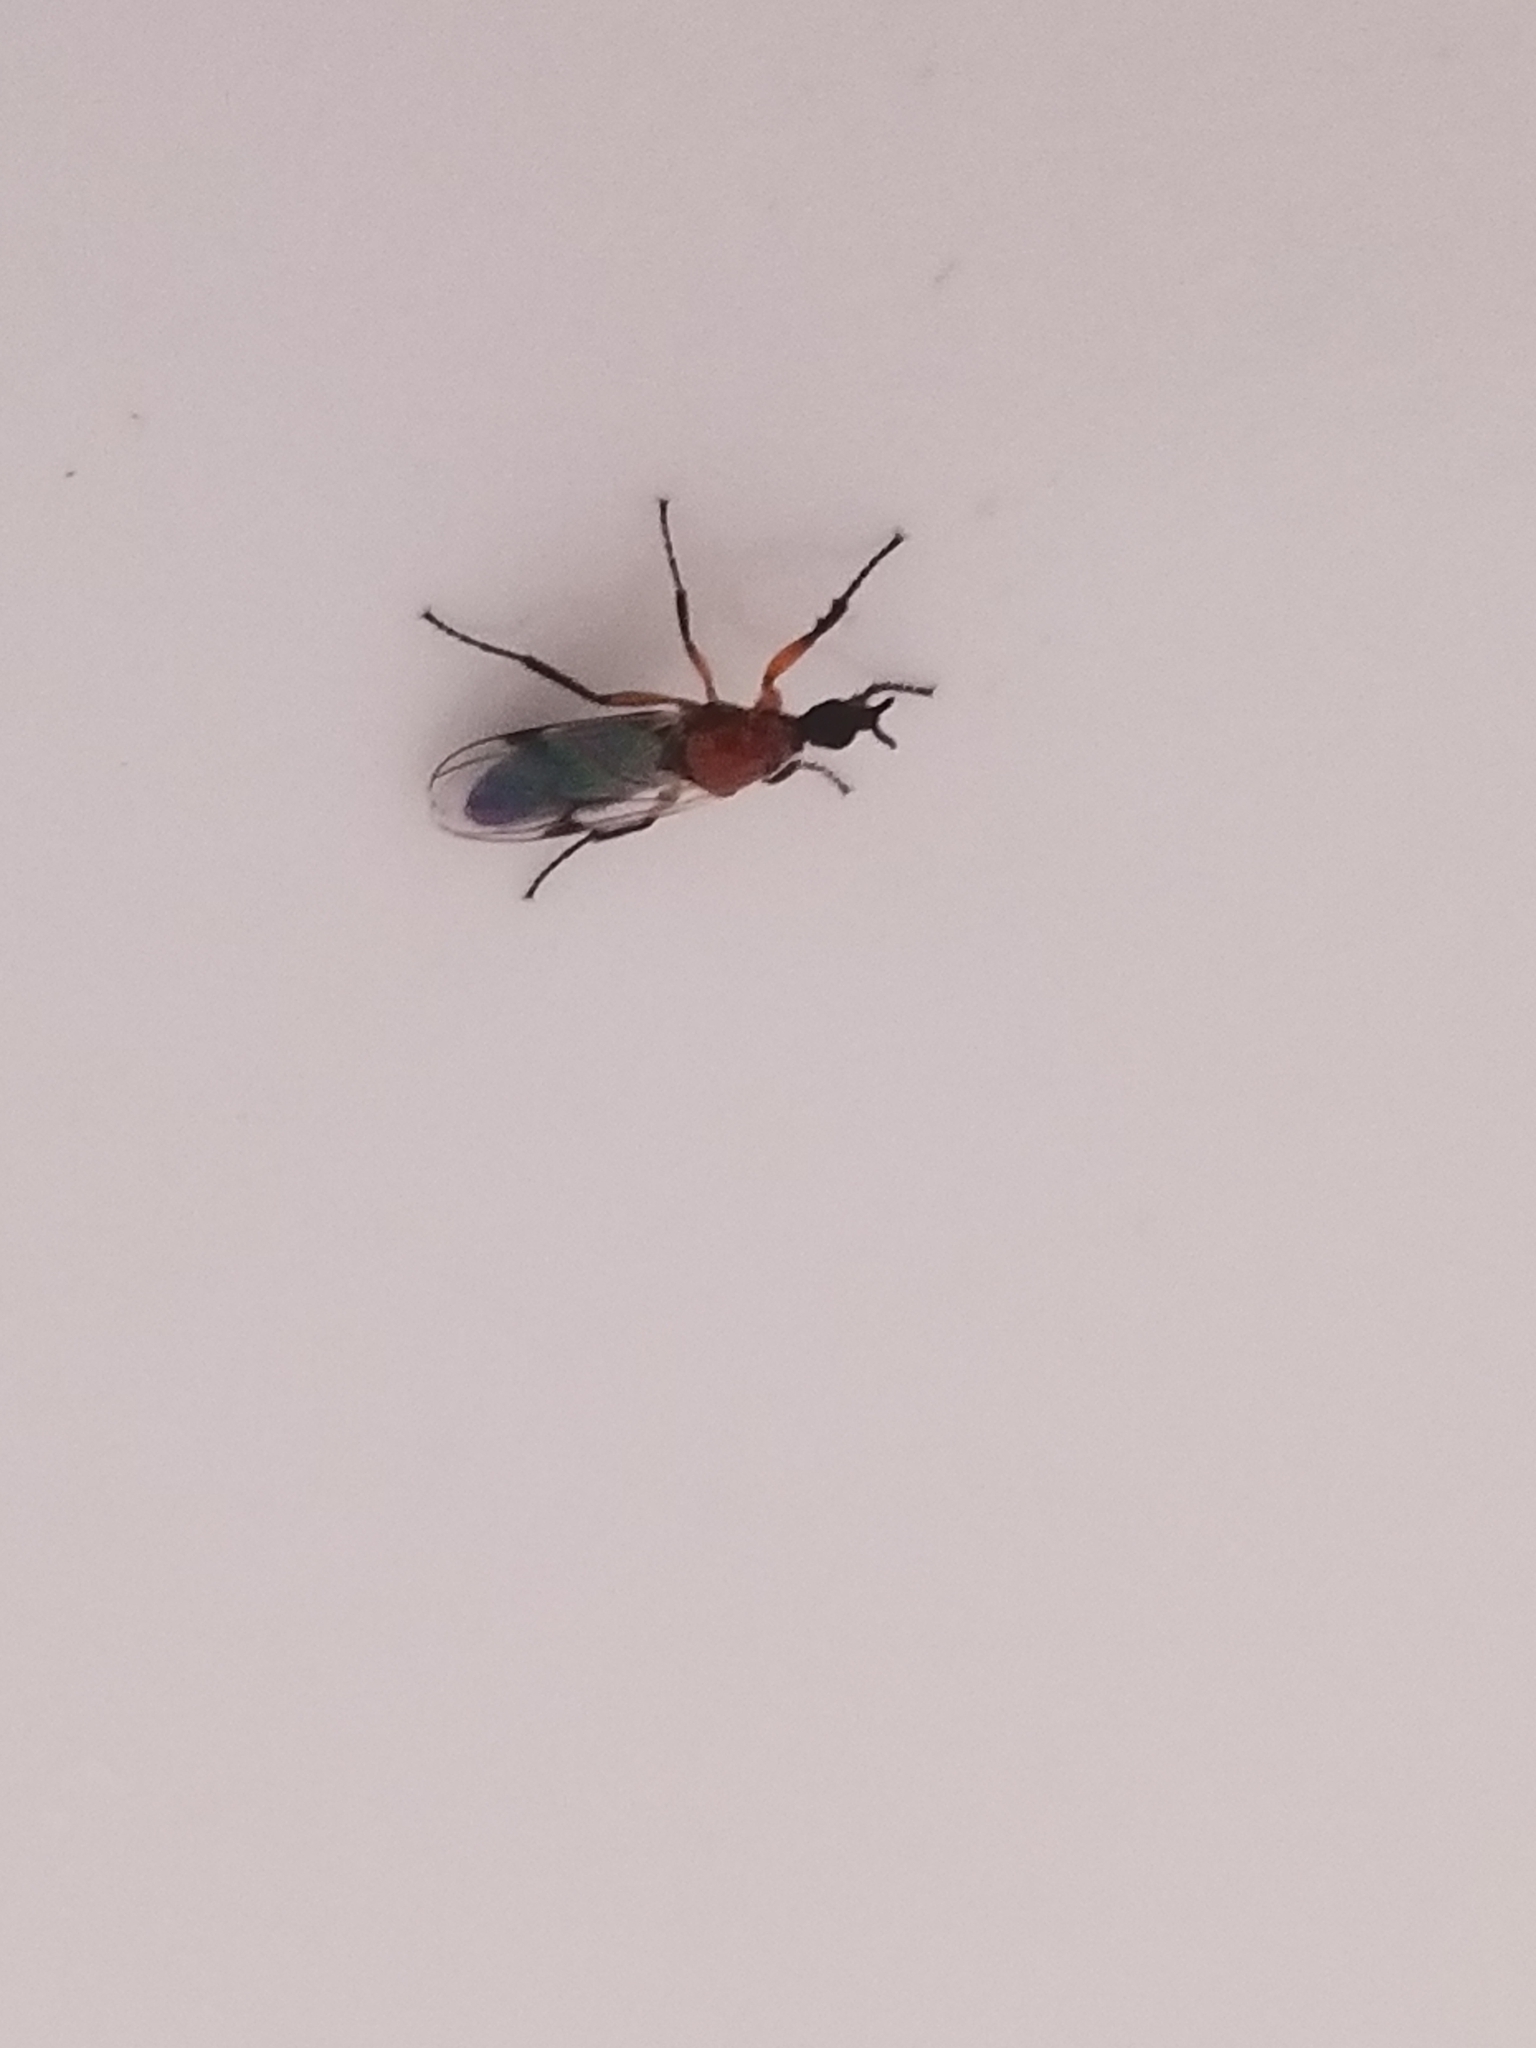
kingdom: Animalia
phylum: Arthropoda
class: Insecta
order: Diptera
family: Bibionidae
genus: Dilophus
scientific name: Dilophus
